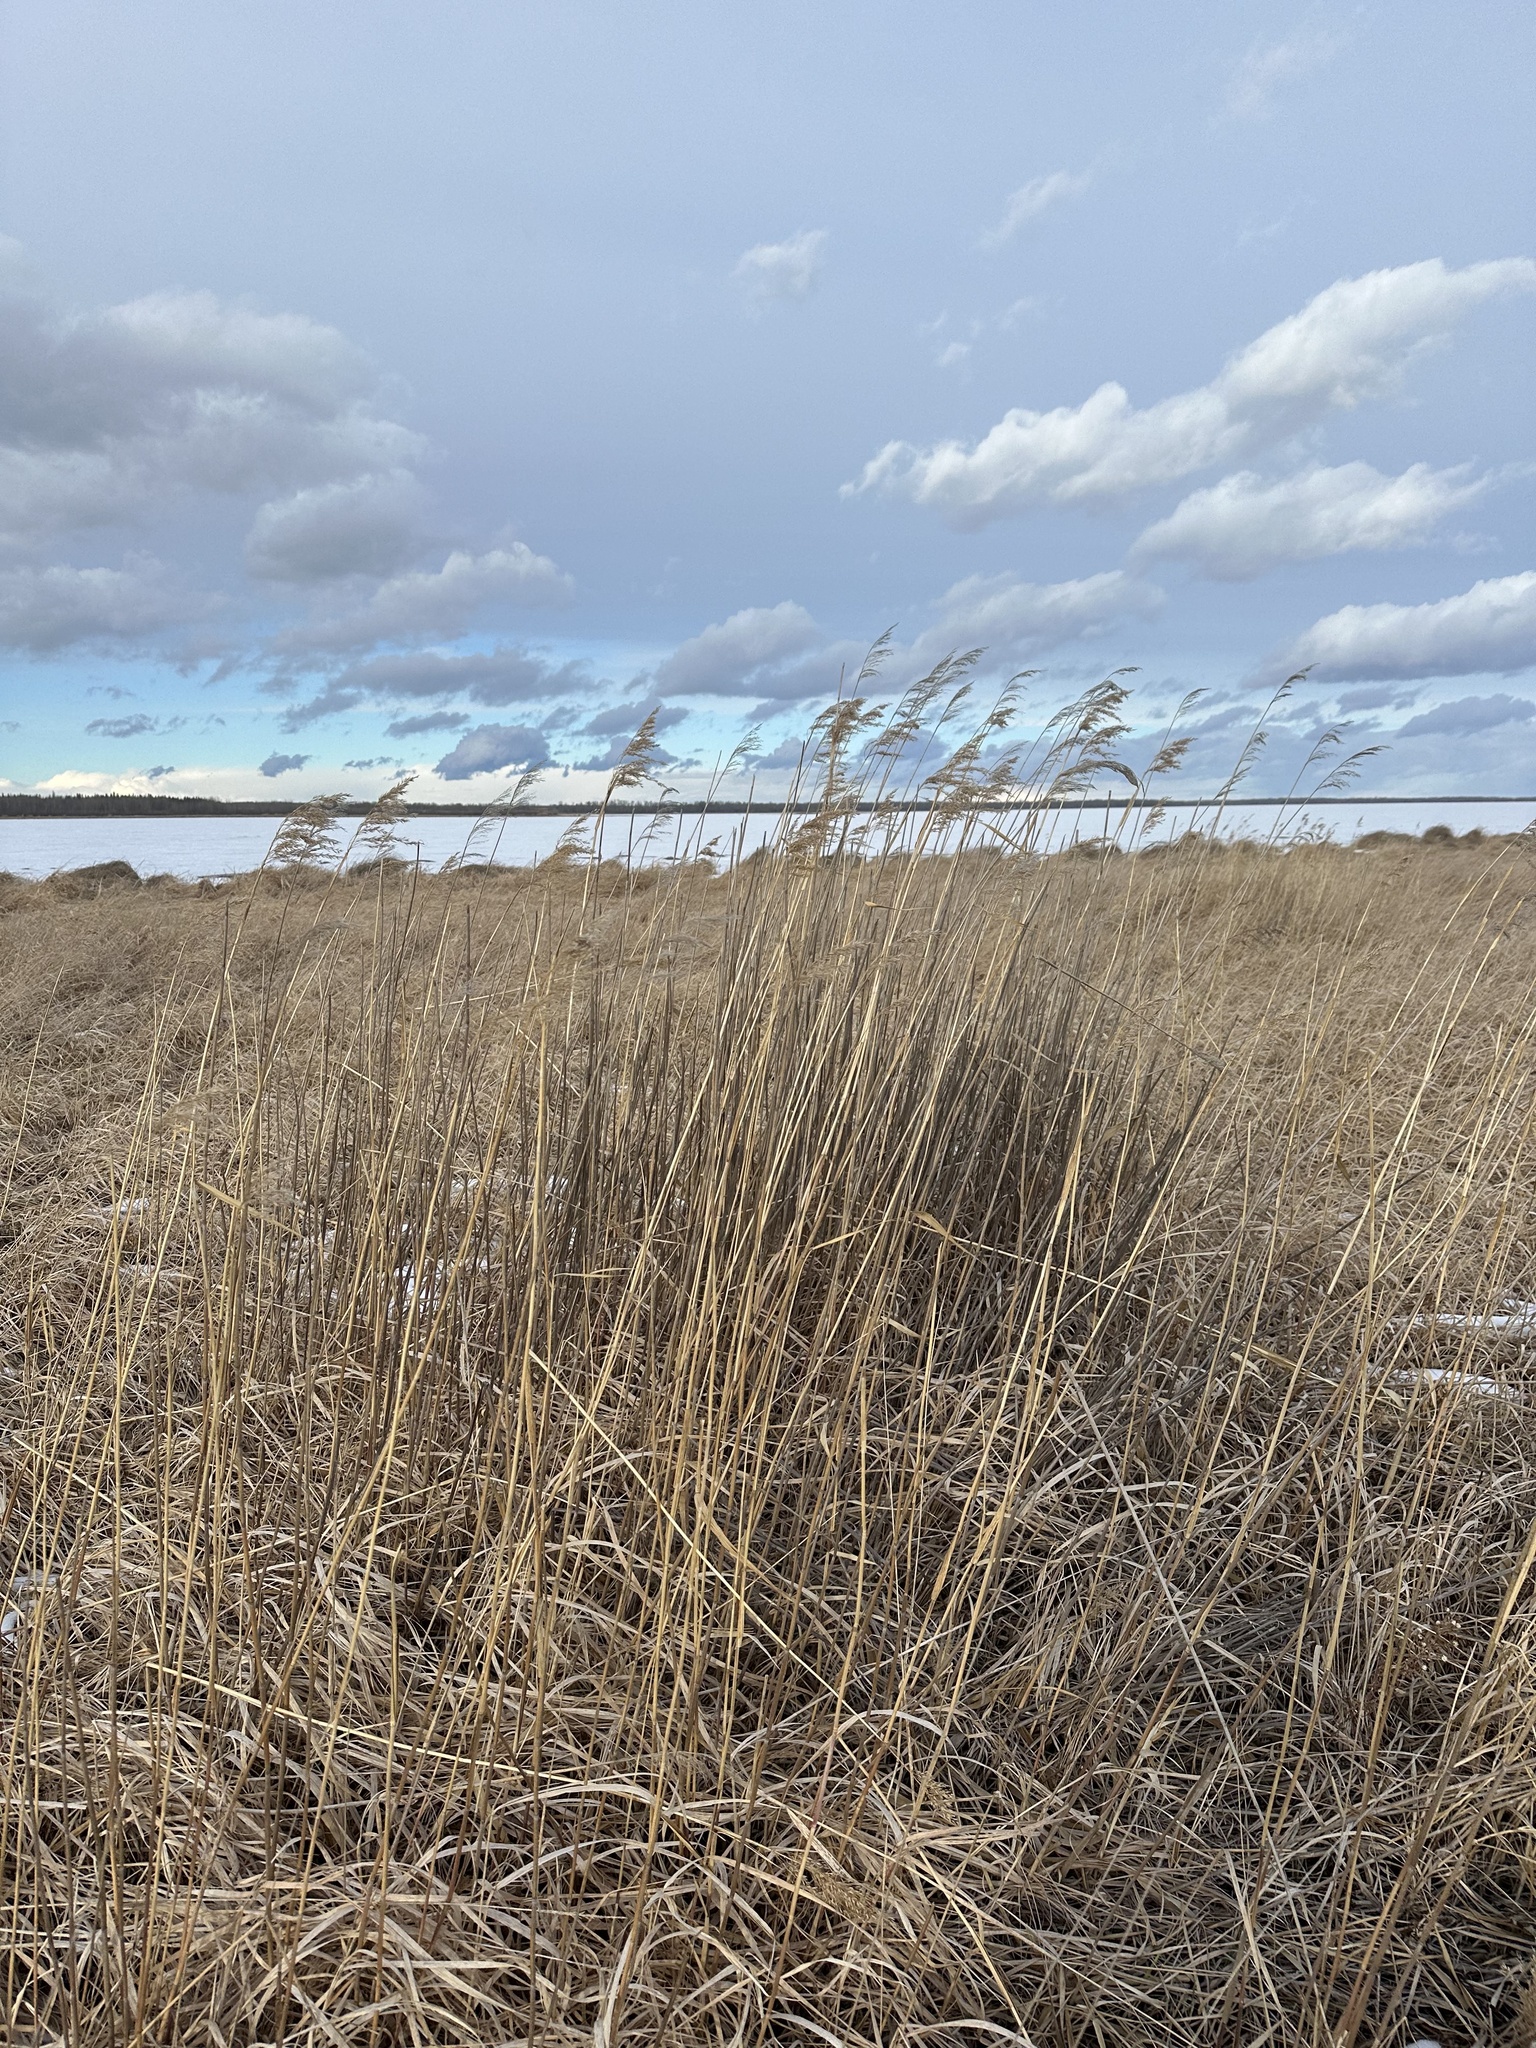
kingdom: Plantae
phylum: Tracheophyta
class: Liliopsida
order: Poales
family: Poaceae
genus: Phragmites
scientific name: Phragmites australis
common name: Common reed
